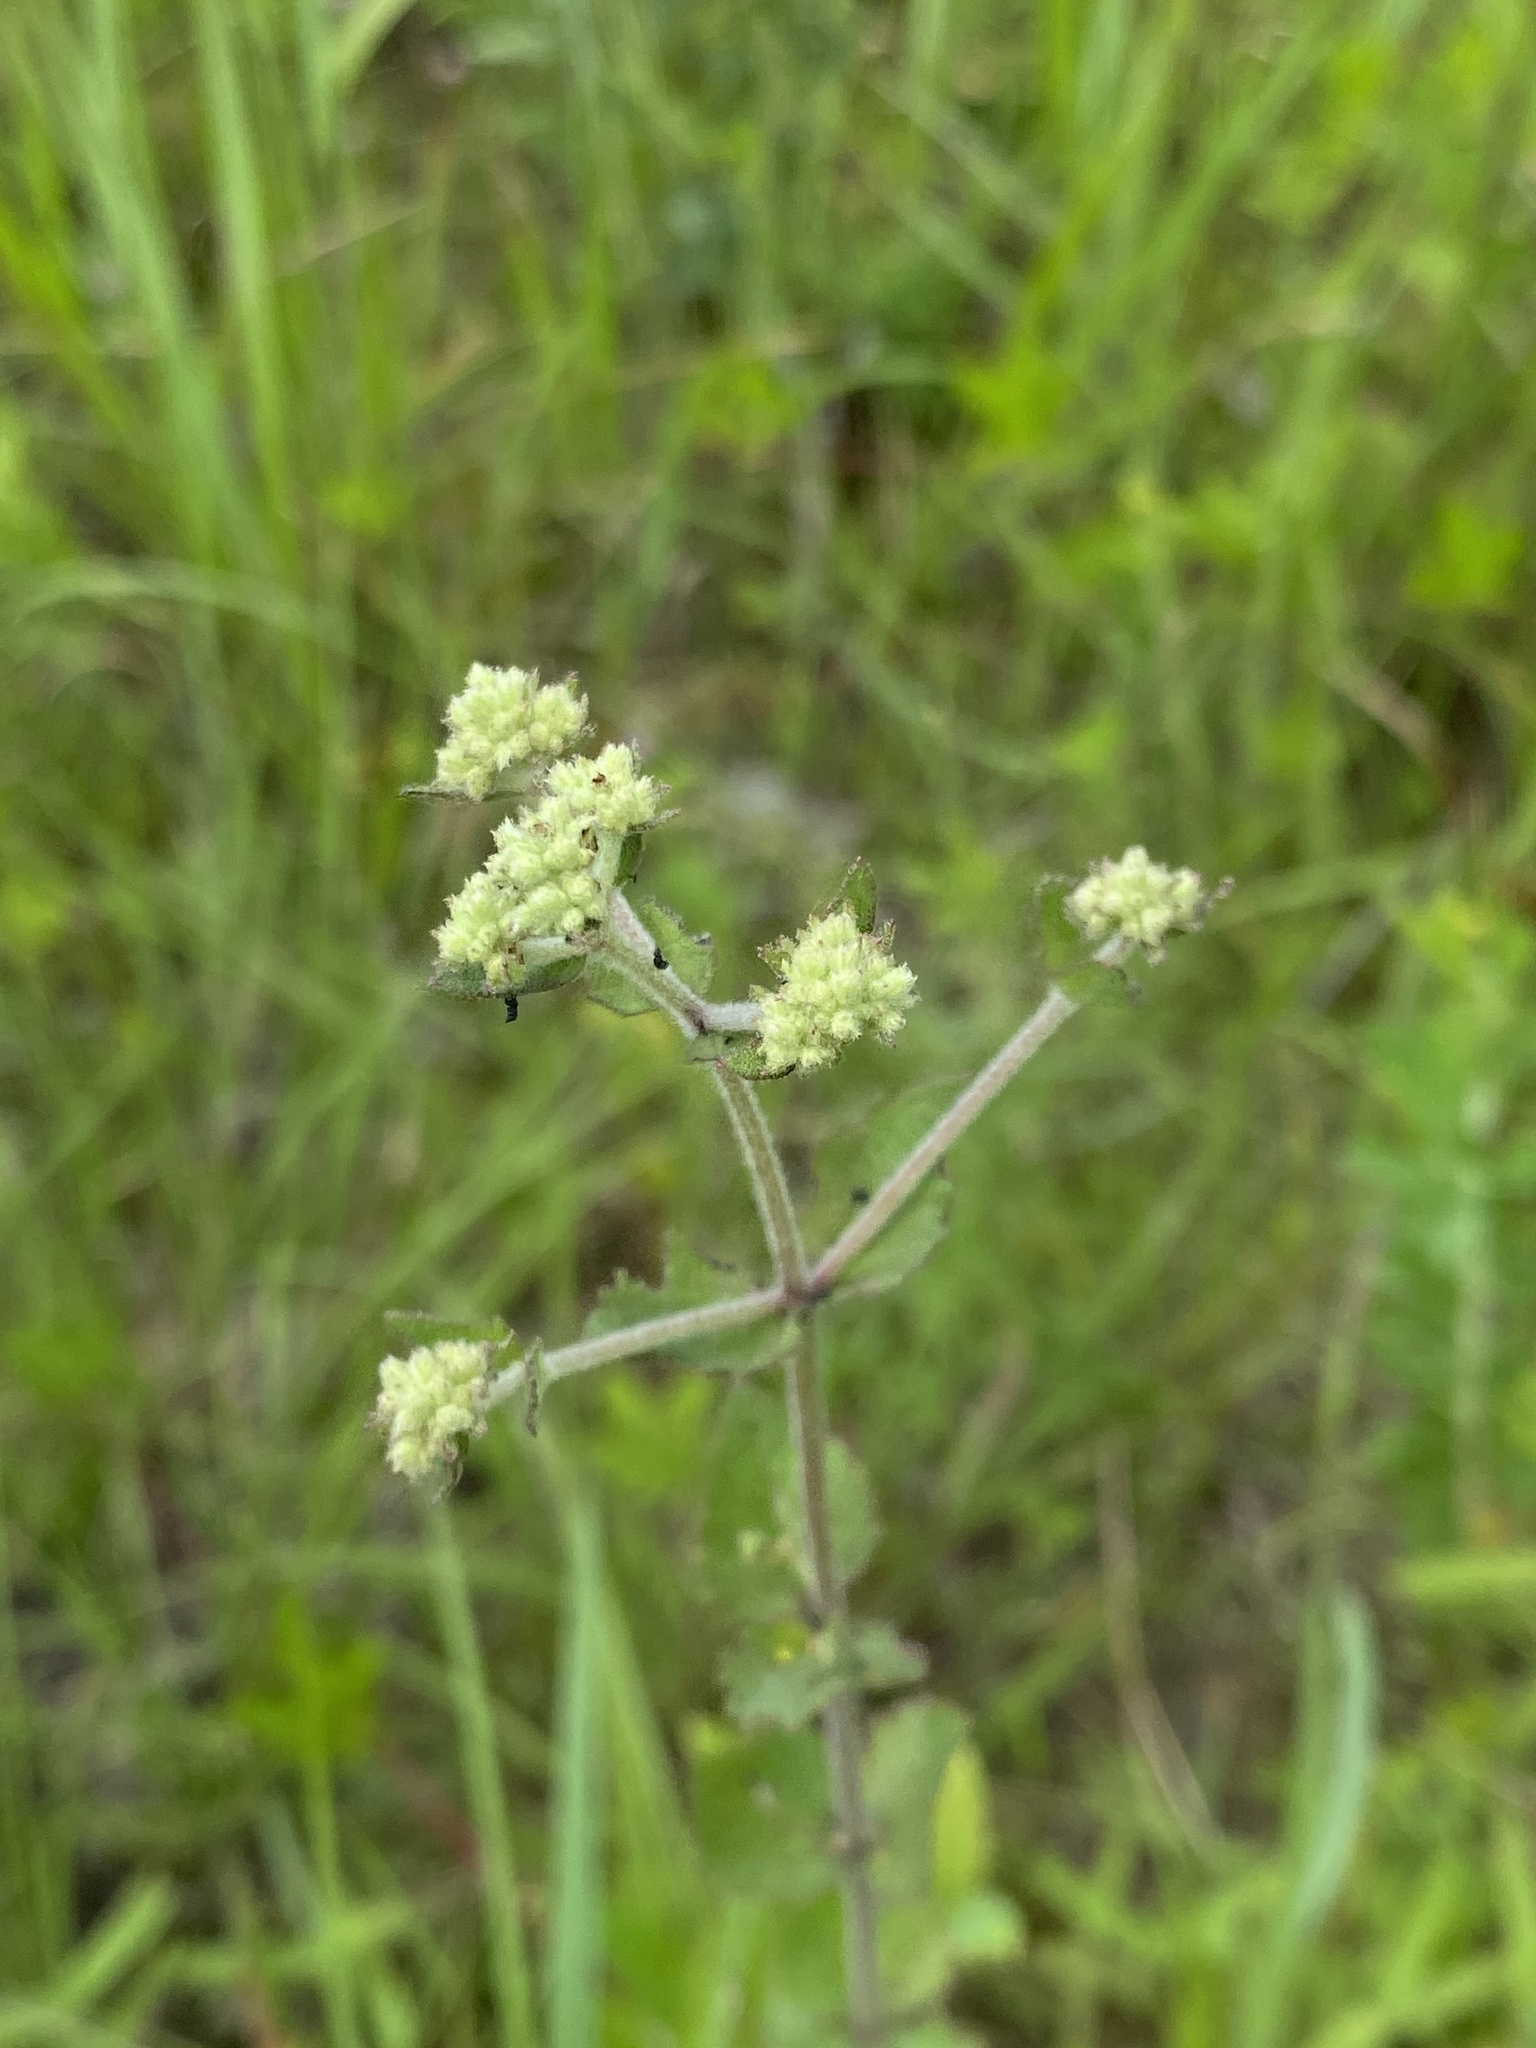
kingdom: Plantae
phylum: Tracheophyta
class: Magnoliopsida
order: Asterales
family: Asteraceae
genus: Eupatorium
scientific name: Eupatorium rotundifolium
